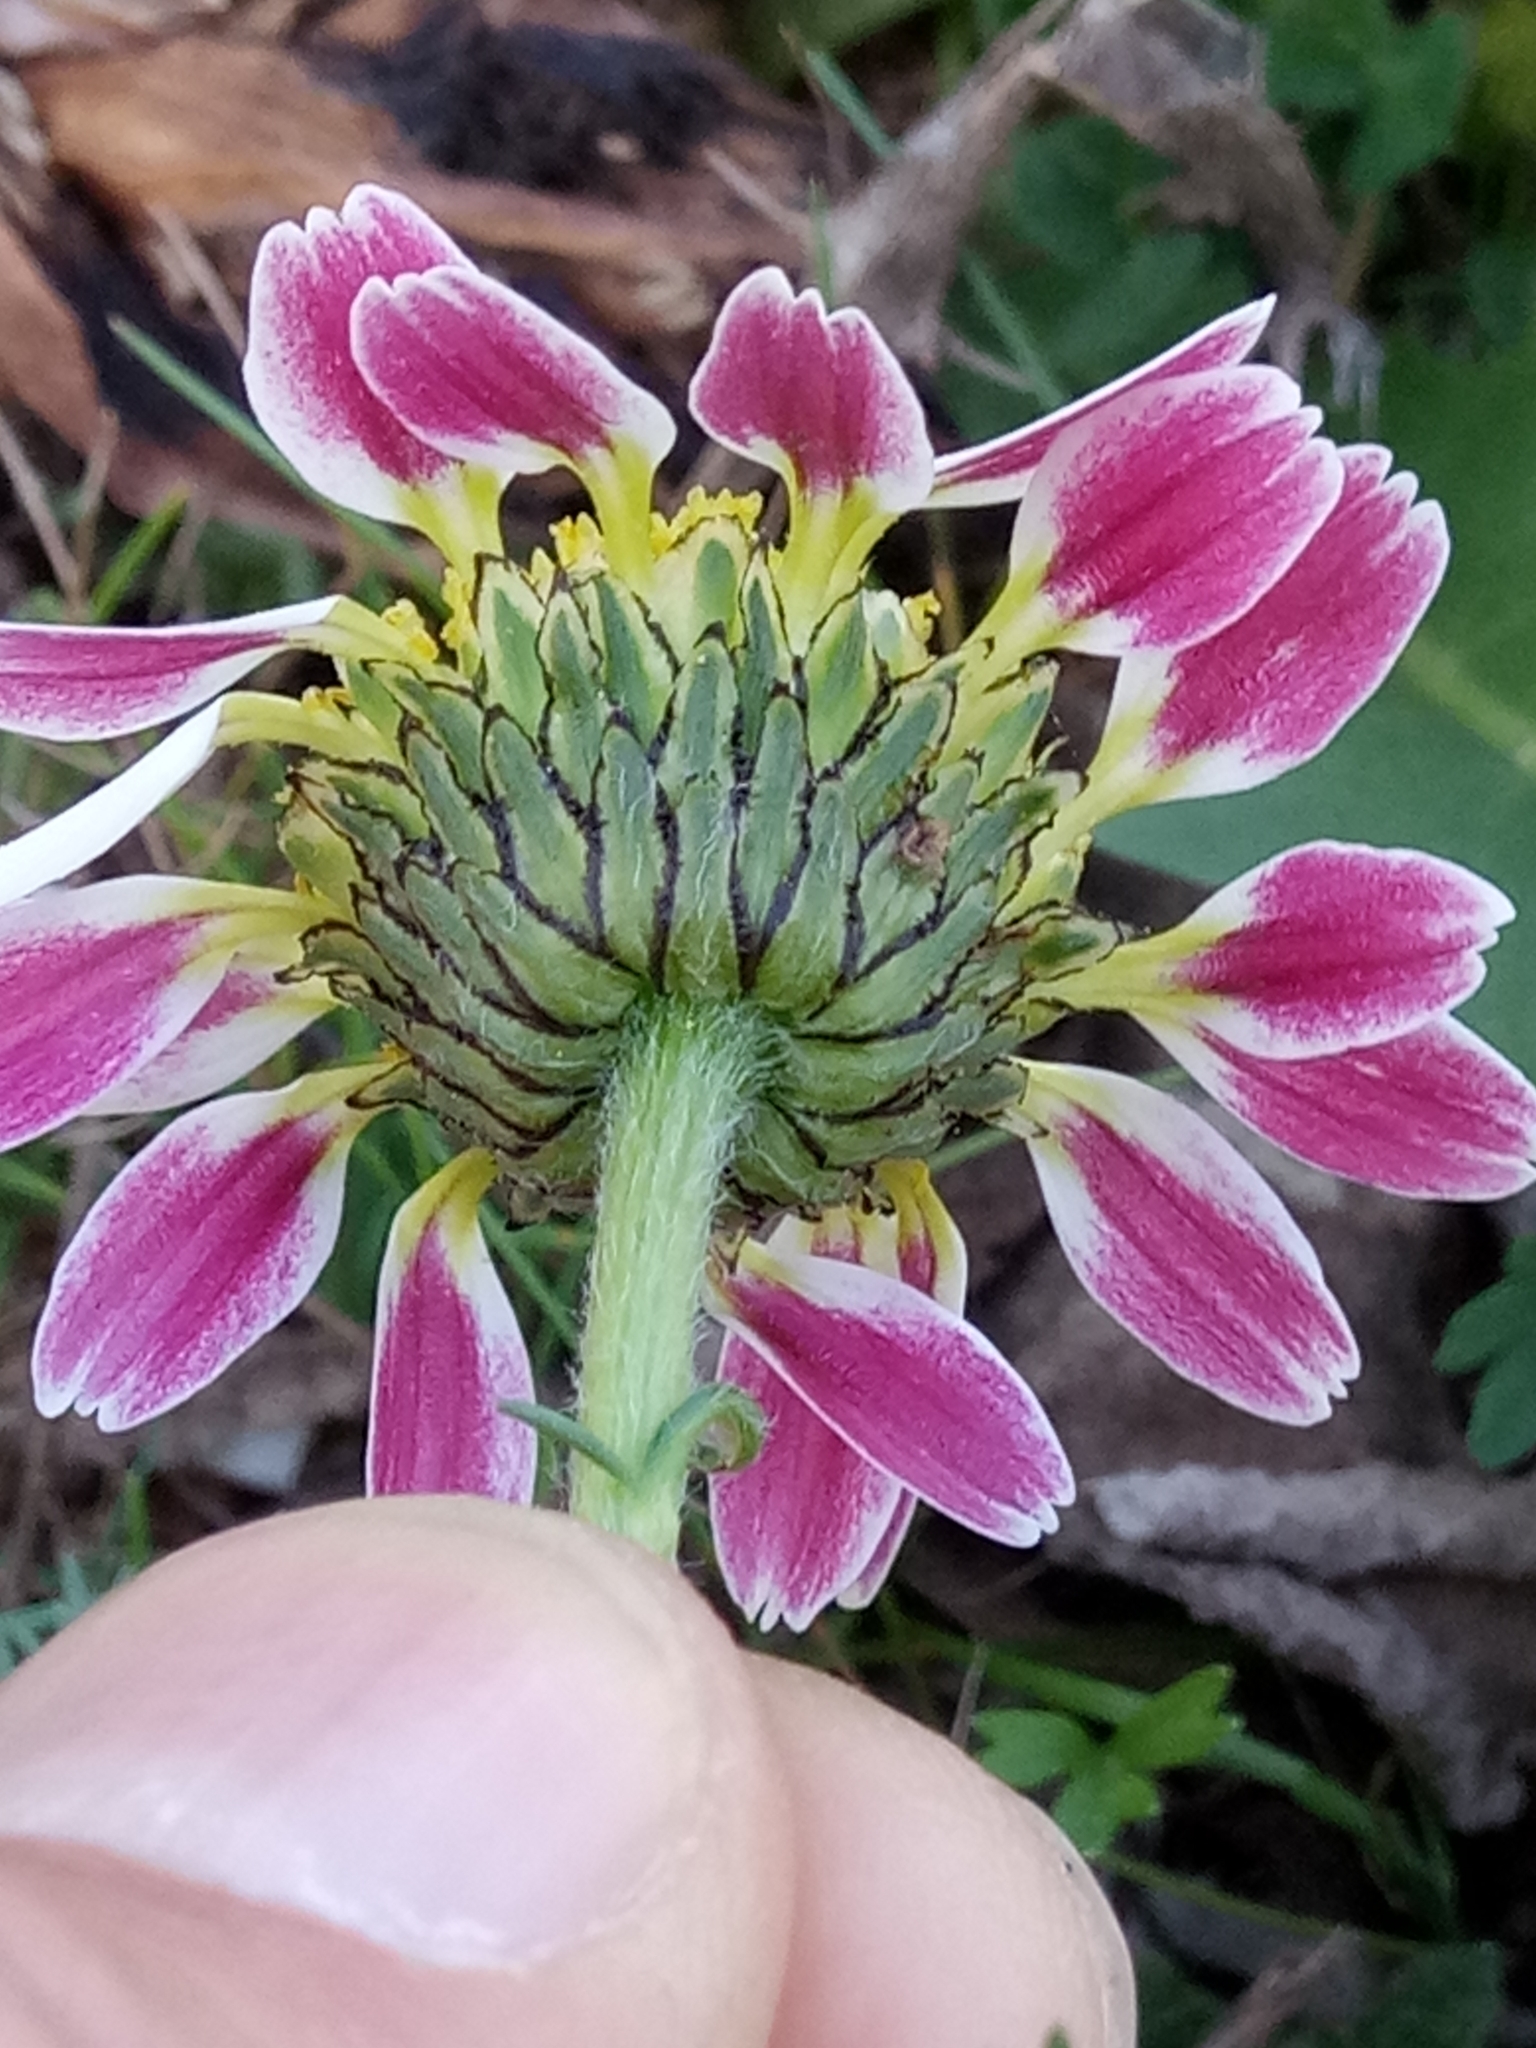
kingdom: Plantae
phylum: Tracheophyta
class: Magnoliopsida
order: Asterales
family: Asteraceae
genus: Anacyclus
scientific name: Anacyclus pyrethrum
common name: Mt. atlas daisy
